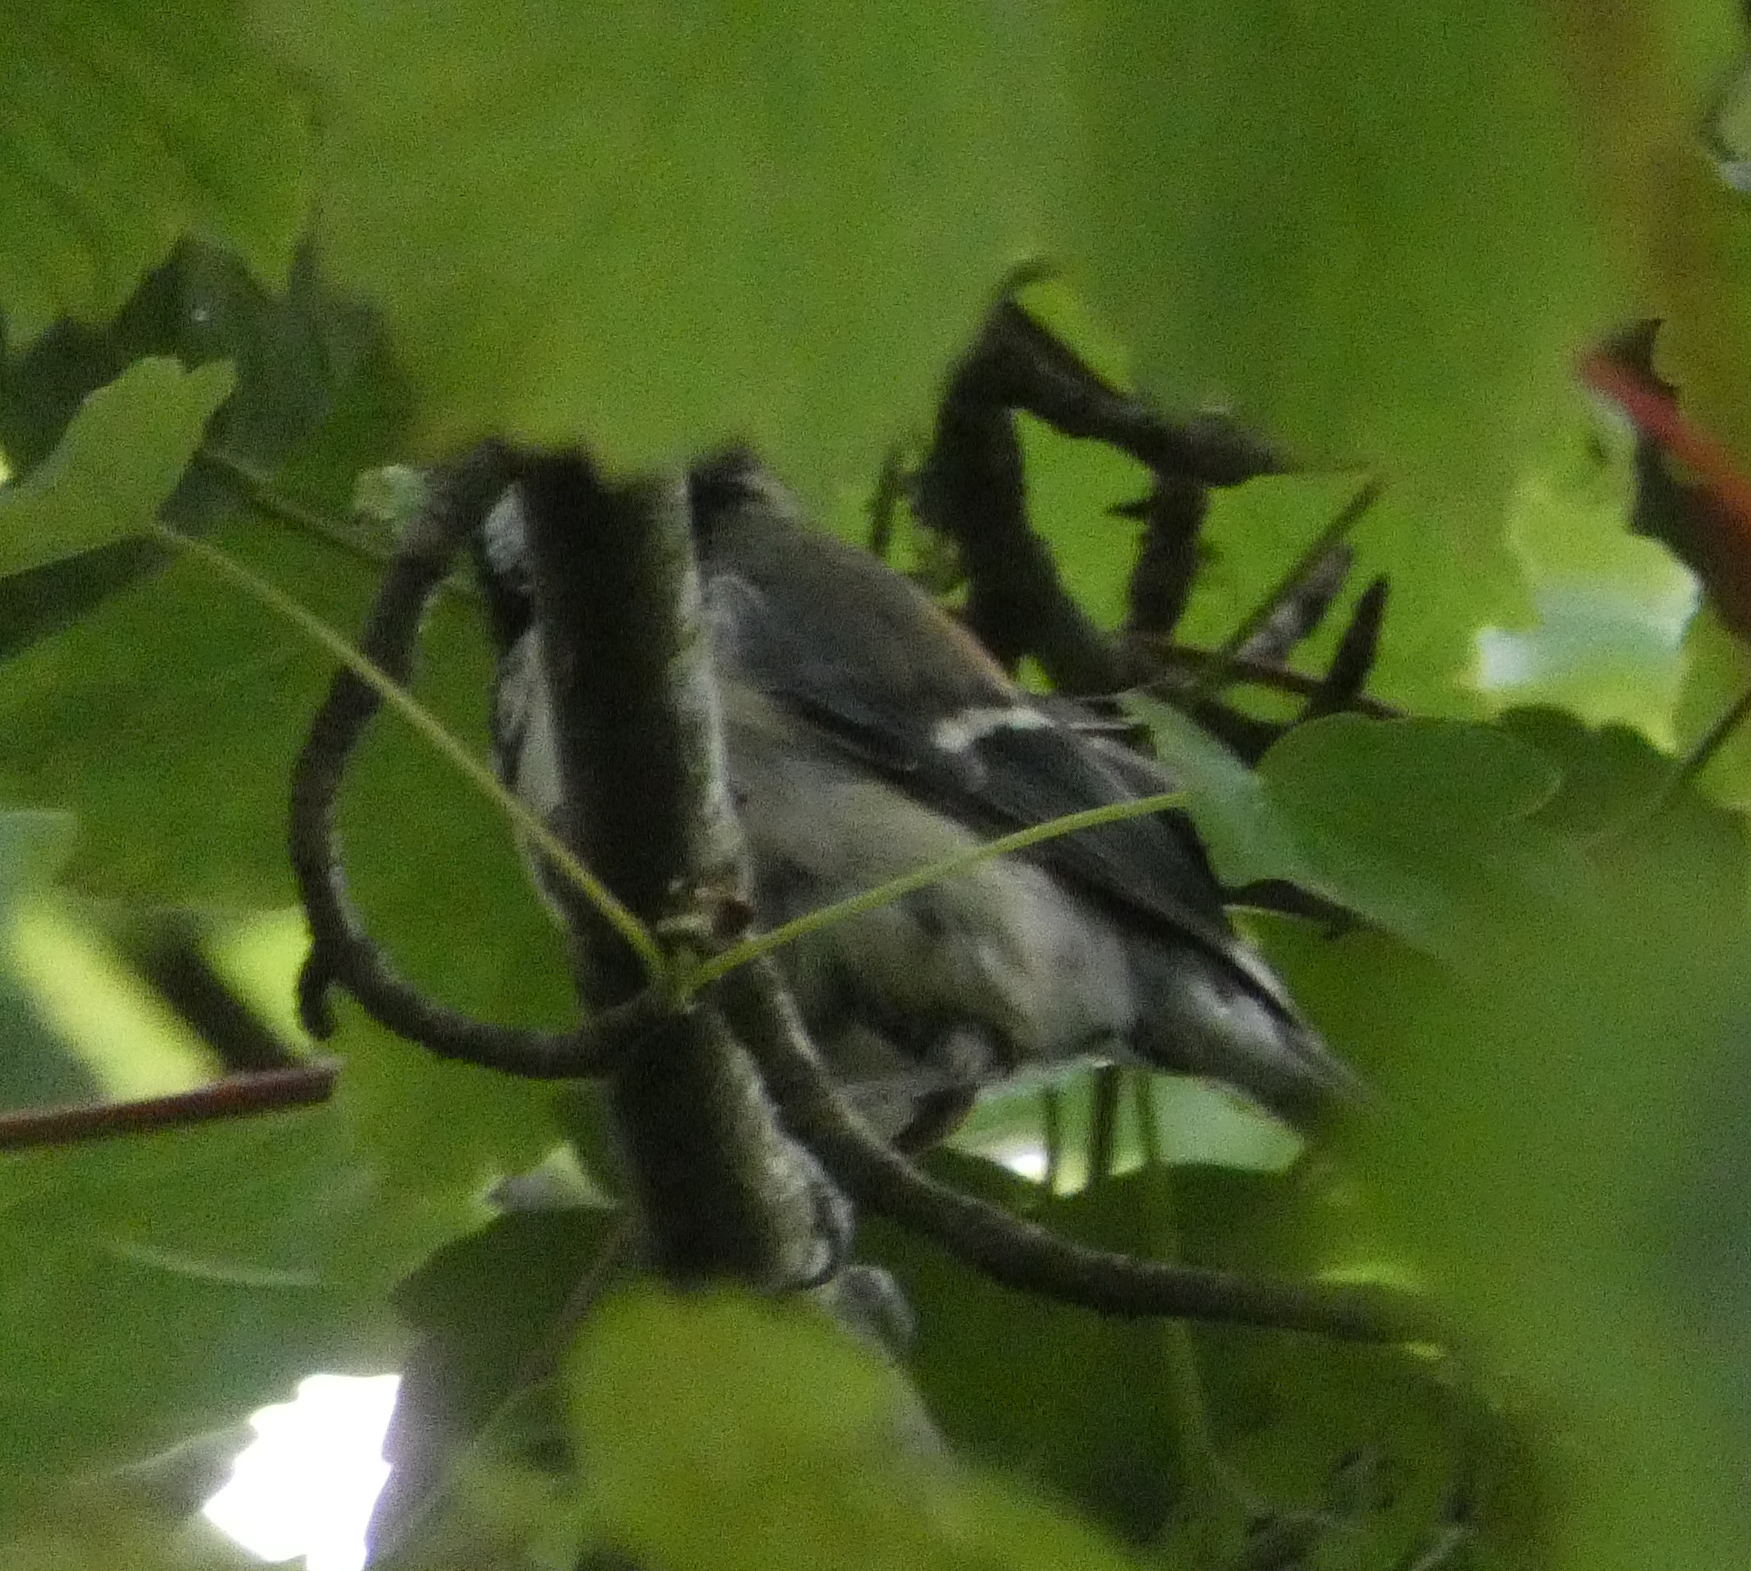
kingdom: Animalia
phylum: Chordata
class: Aves
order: Passeriformes
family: Paridae
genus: Parus
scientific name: Parus major
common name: Great tit
